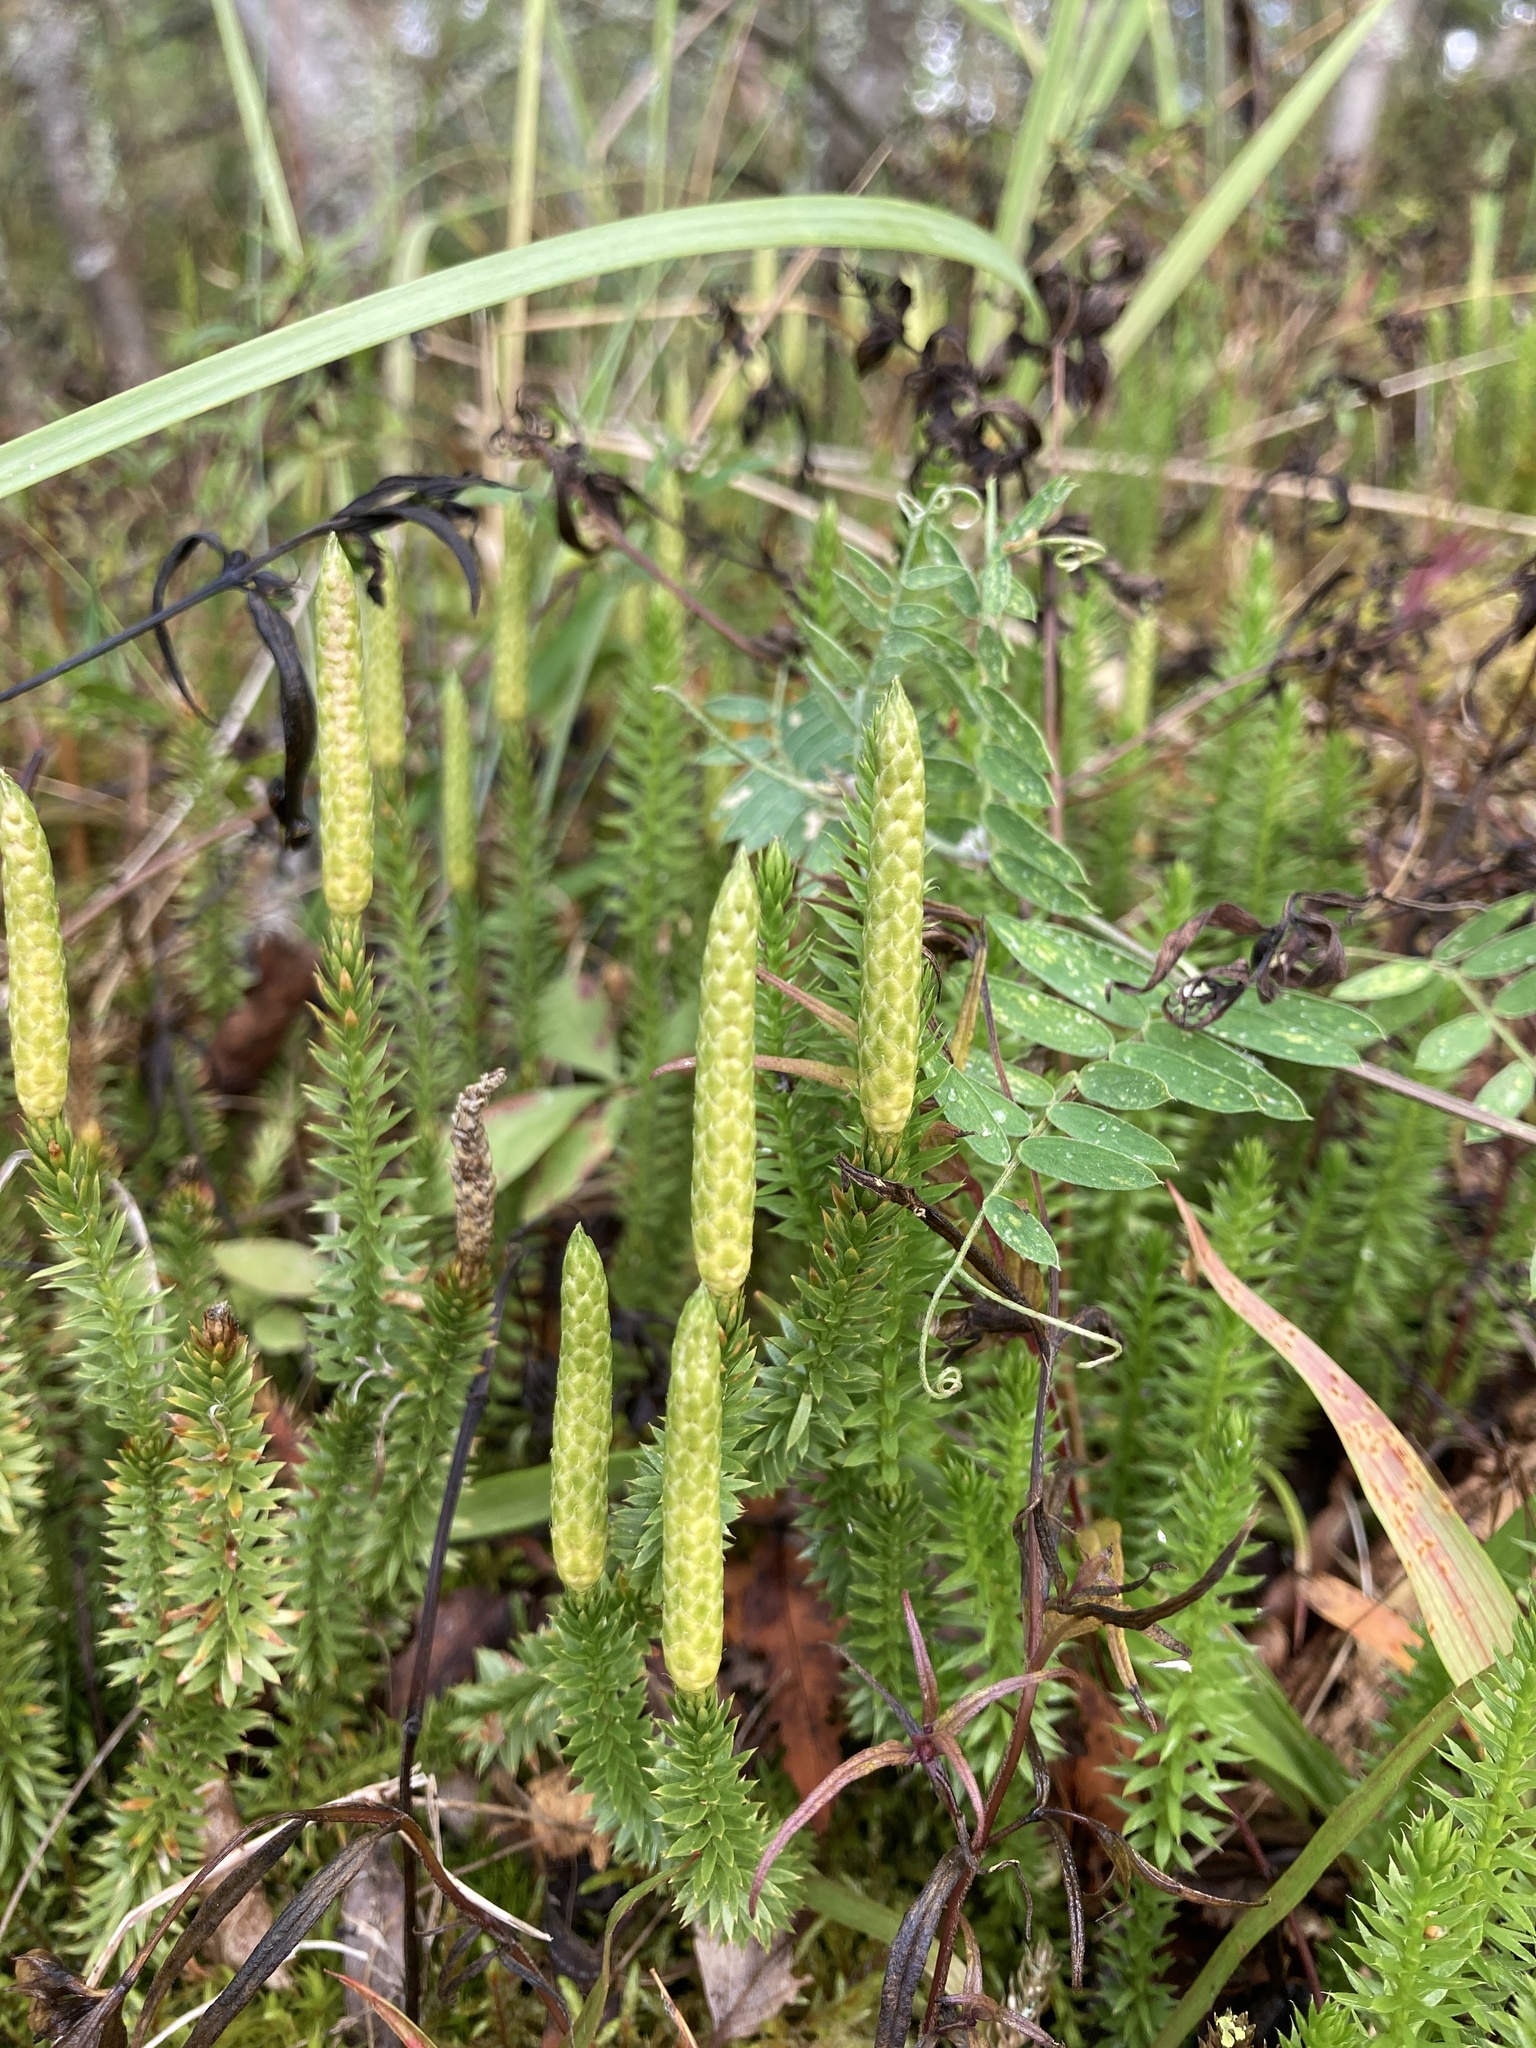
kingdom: Plantae
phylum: Tracheophyta
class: Lycopodiopsida
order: Lycopodiales
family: Lycopodiaceae
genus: Spinulum
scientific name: Spinulum annotinum
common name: Interrupted club-moss
